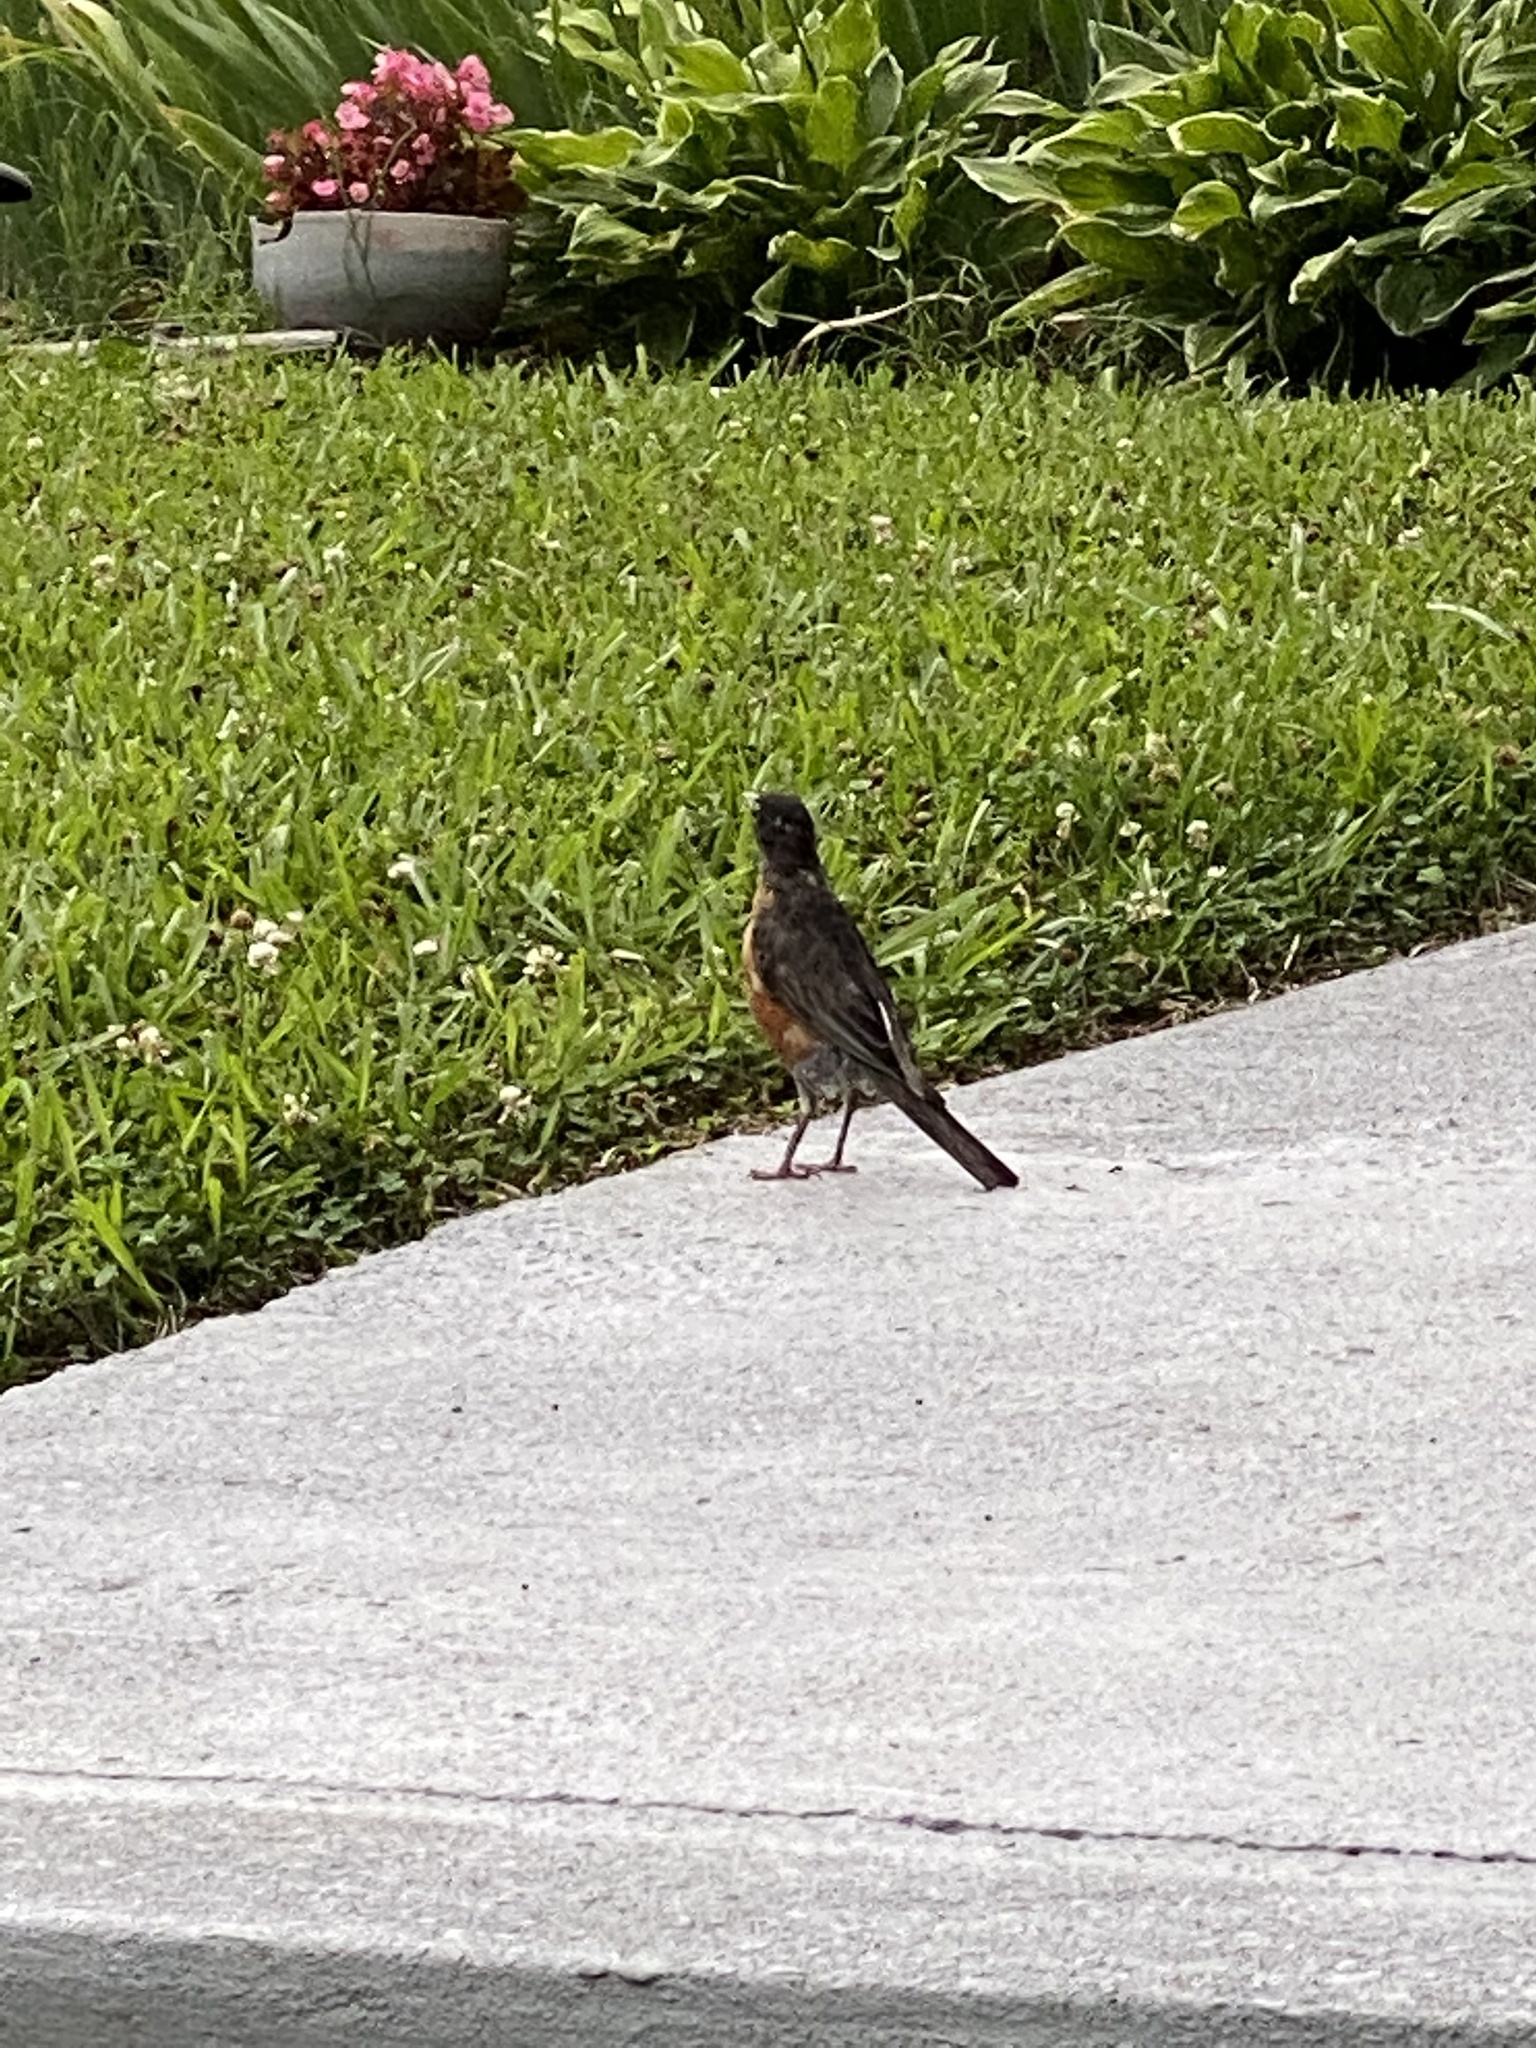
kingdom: Animalia
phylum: Chordata
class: Aves
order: Passeriformes
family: Turdidae
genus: Turdus
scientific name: Turdus migratorius
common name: American robin
